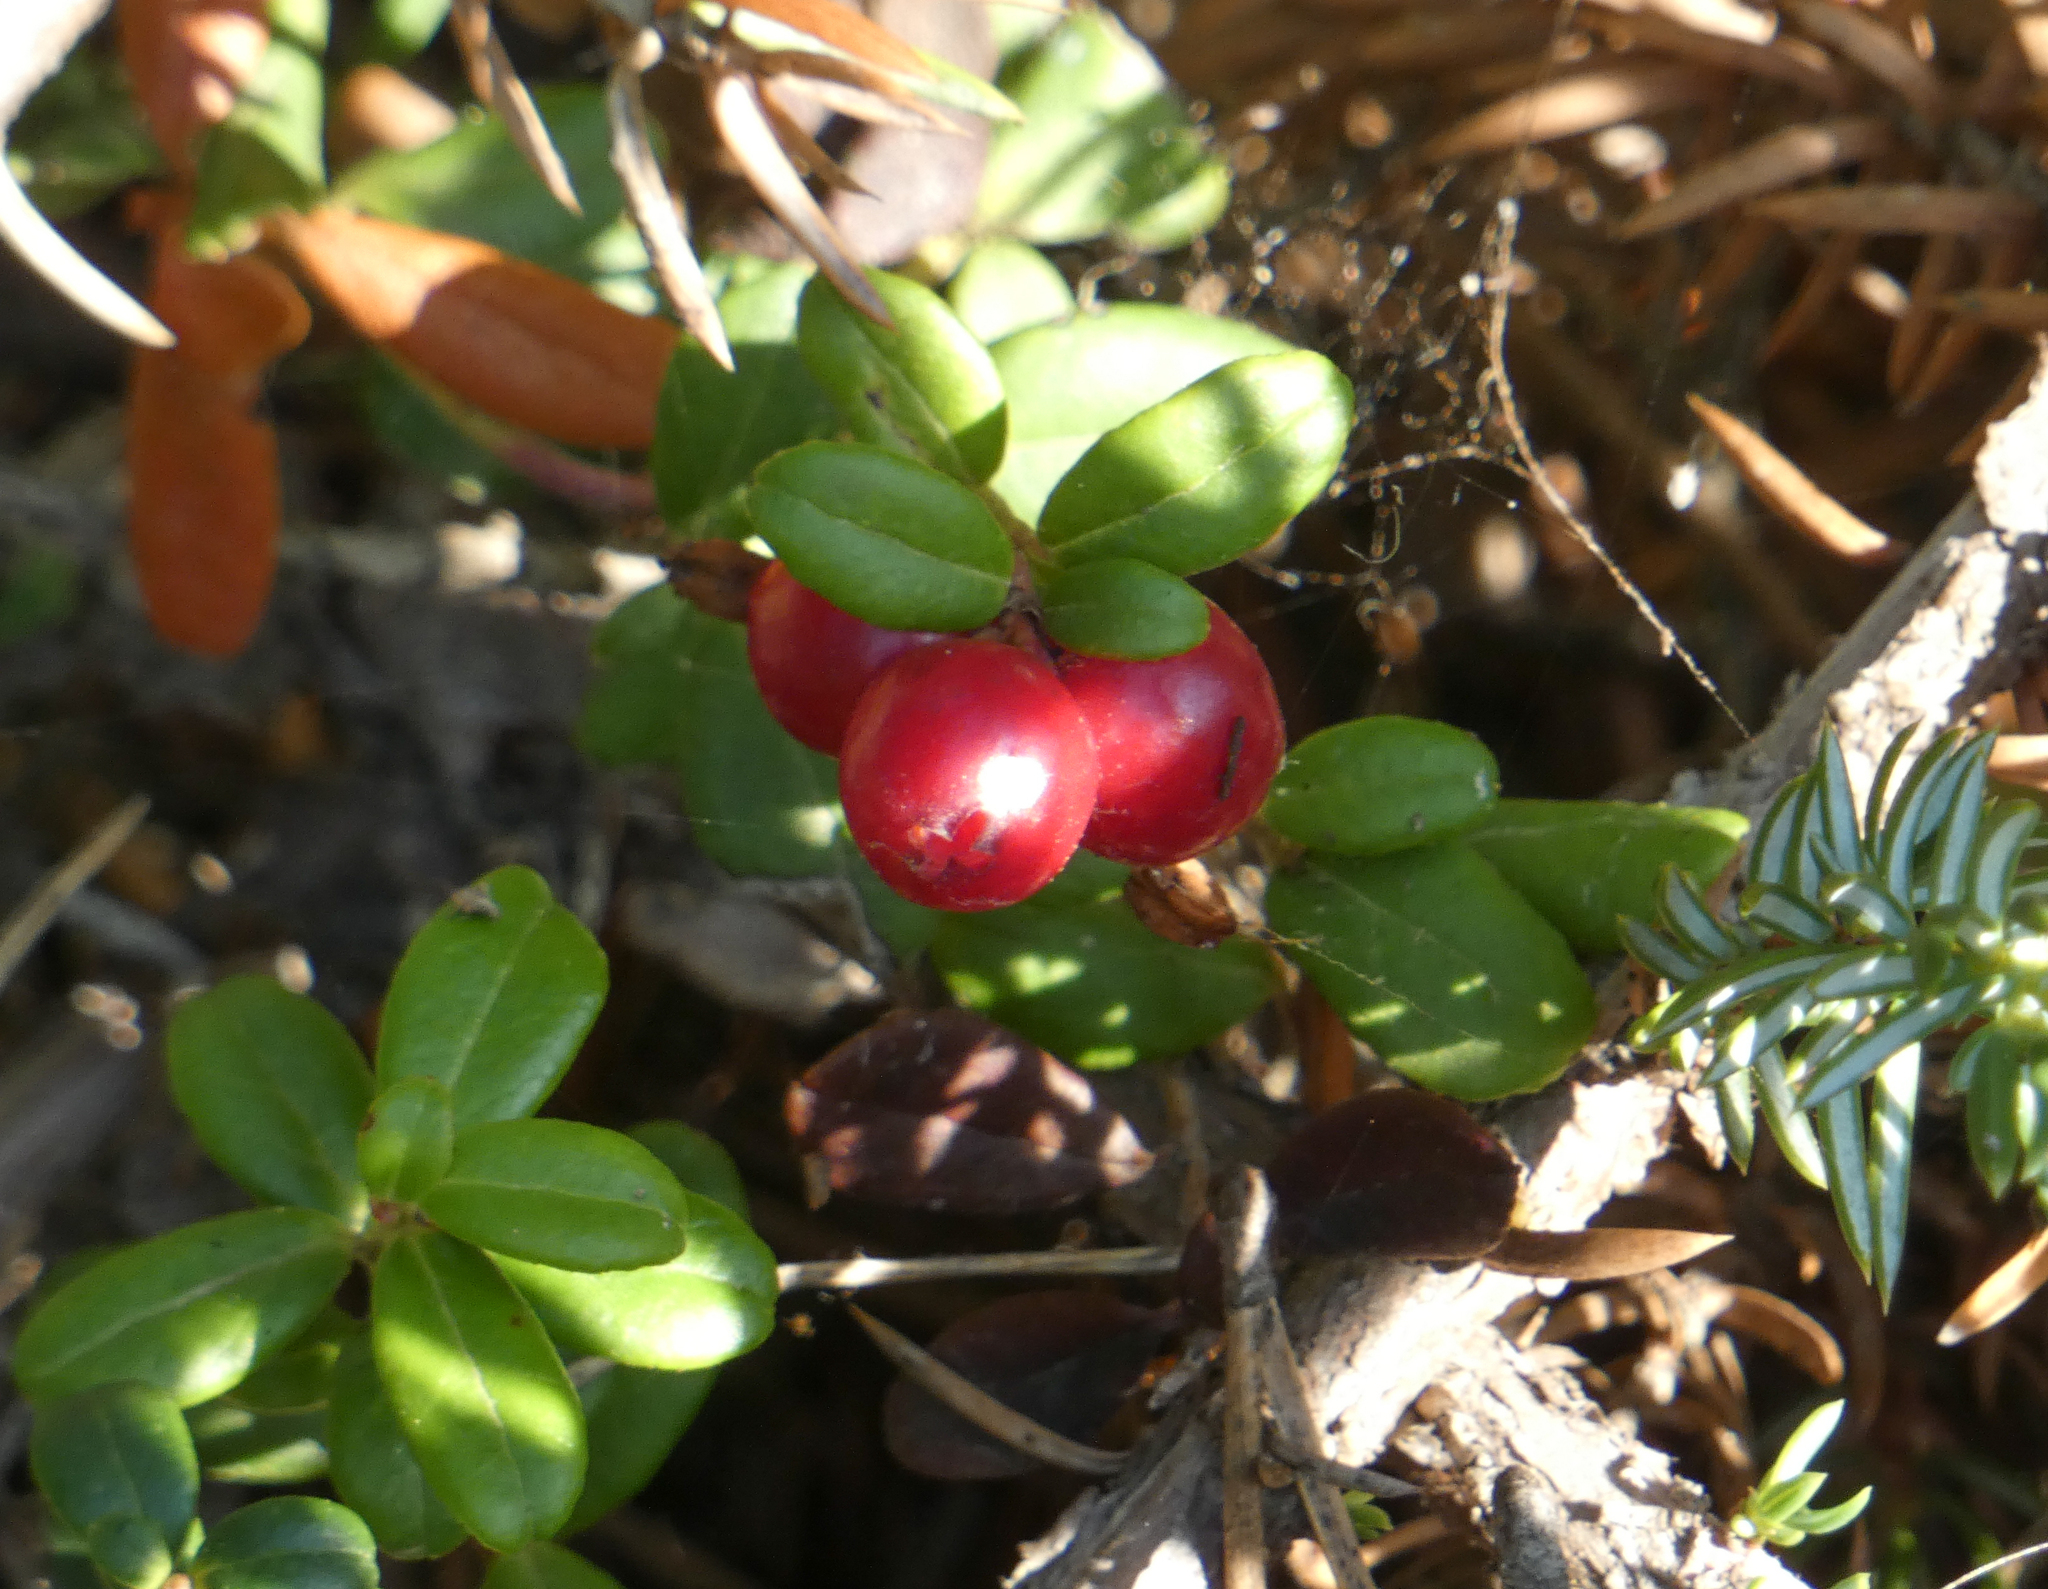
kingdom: Plantae
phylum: Tracheophyta
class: Magnoliopsida
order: Ericales
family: Ericaceae
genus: Vaccinium
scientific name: Vaccinium vitis-idaea
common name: Cowberry
